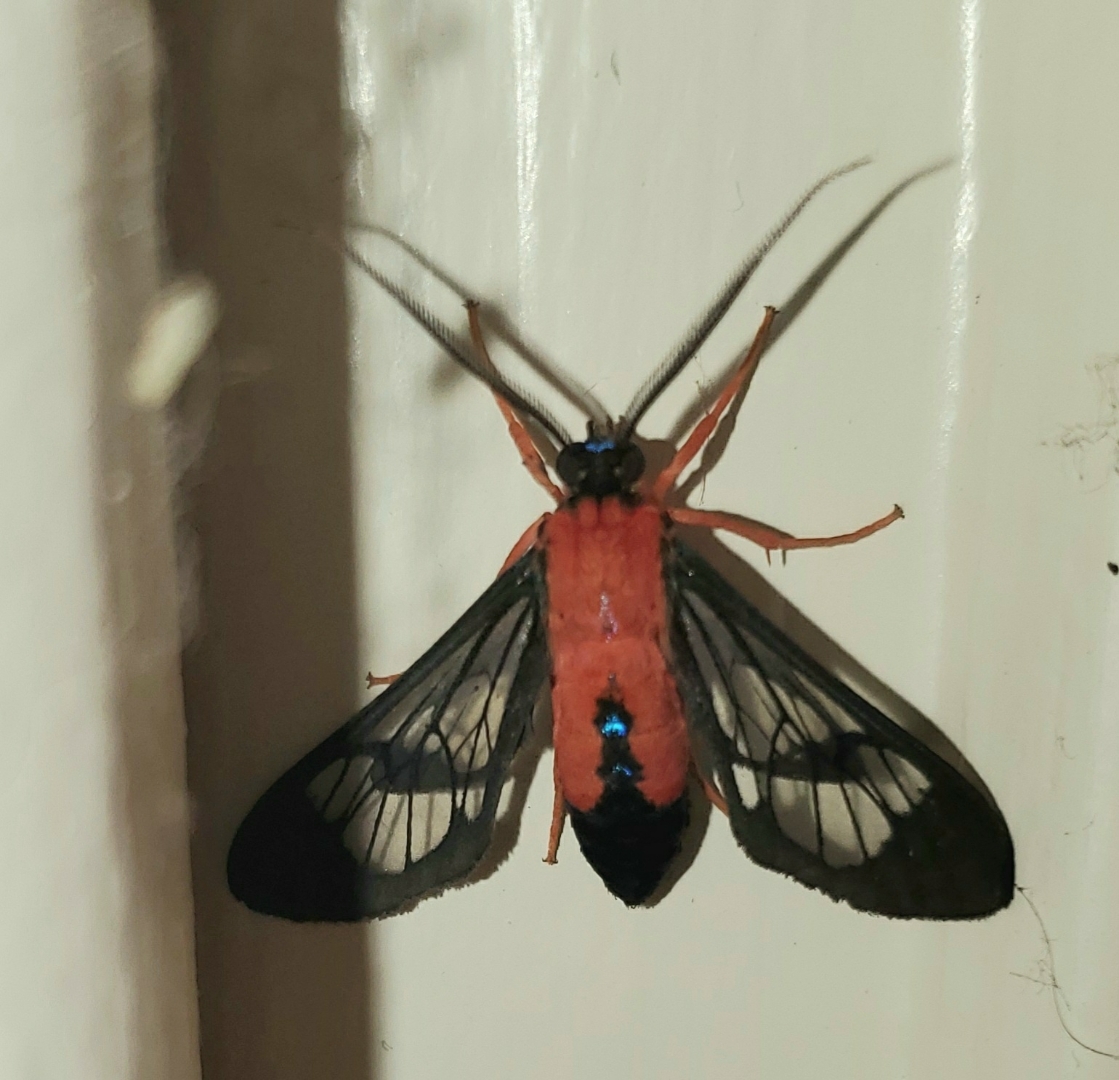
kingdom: Animalia
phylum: Arthropoda
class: Insecta
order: Lepidoptera
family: Erebidae
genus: Cosmosoma
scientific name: Cosmosoma myrodora
